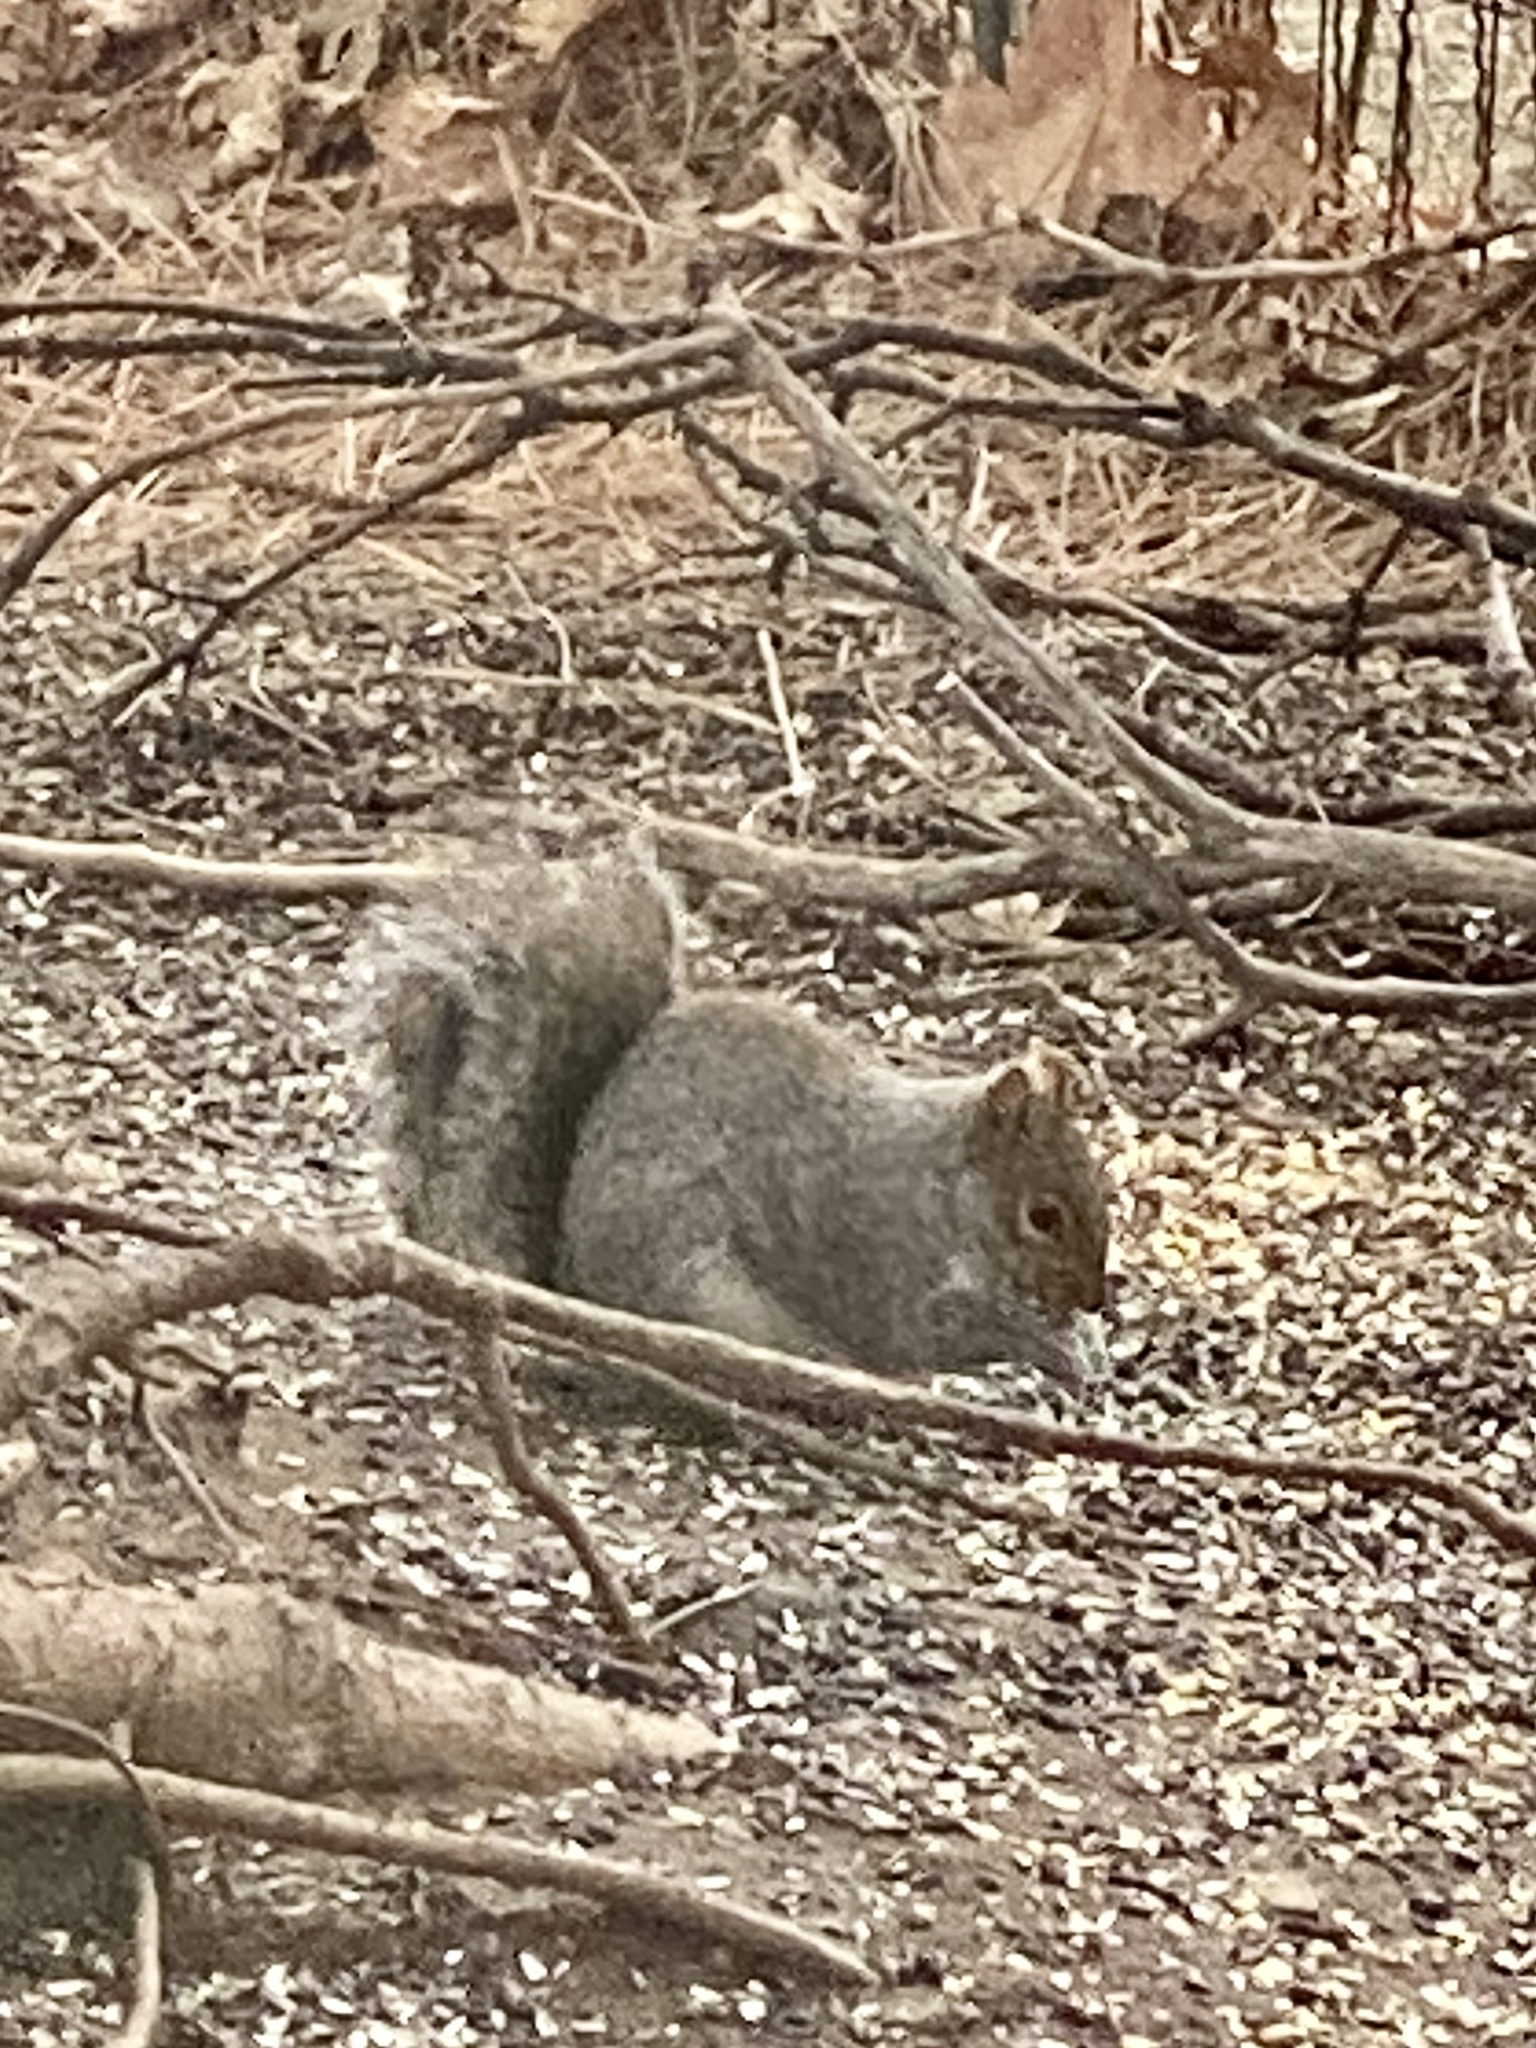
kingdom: Animalia
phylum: Chordata
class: Mammalia
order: Rodentia
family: Sciuridae
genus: Sciurus
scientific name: Sciurus carolinensis
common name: Eastern gray squirrel
